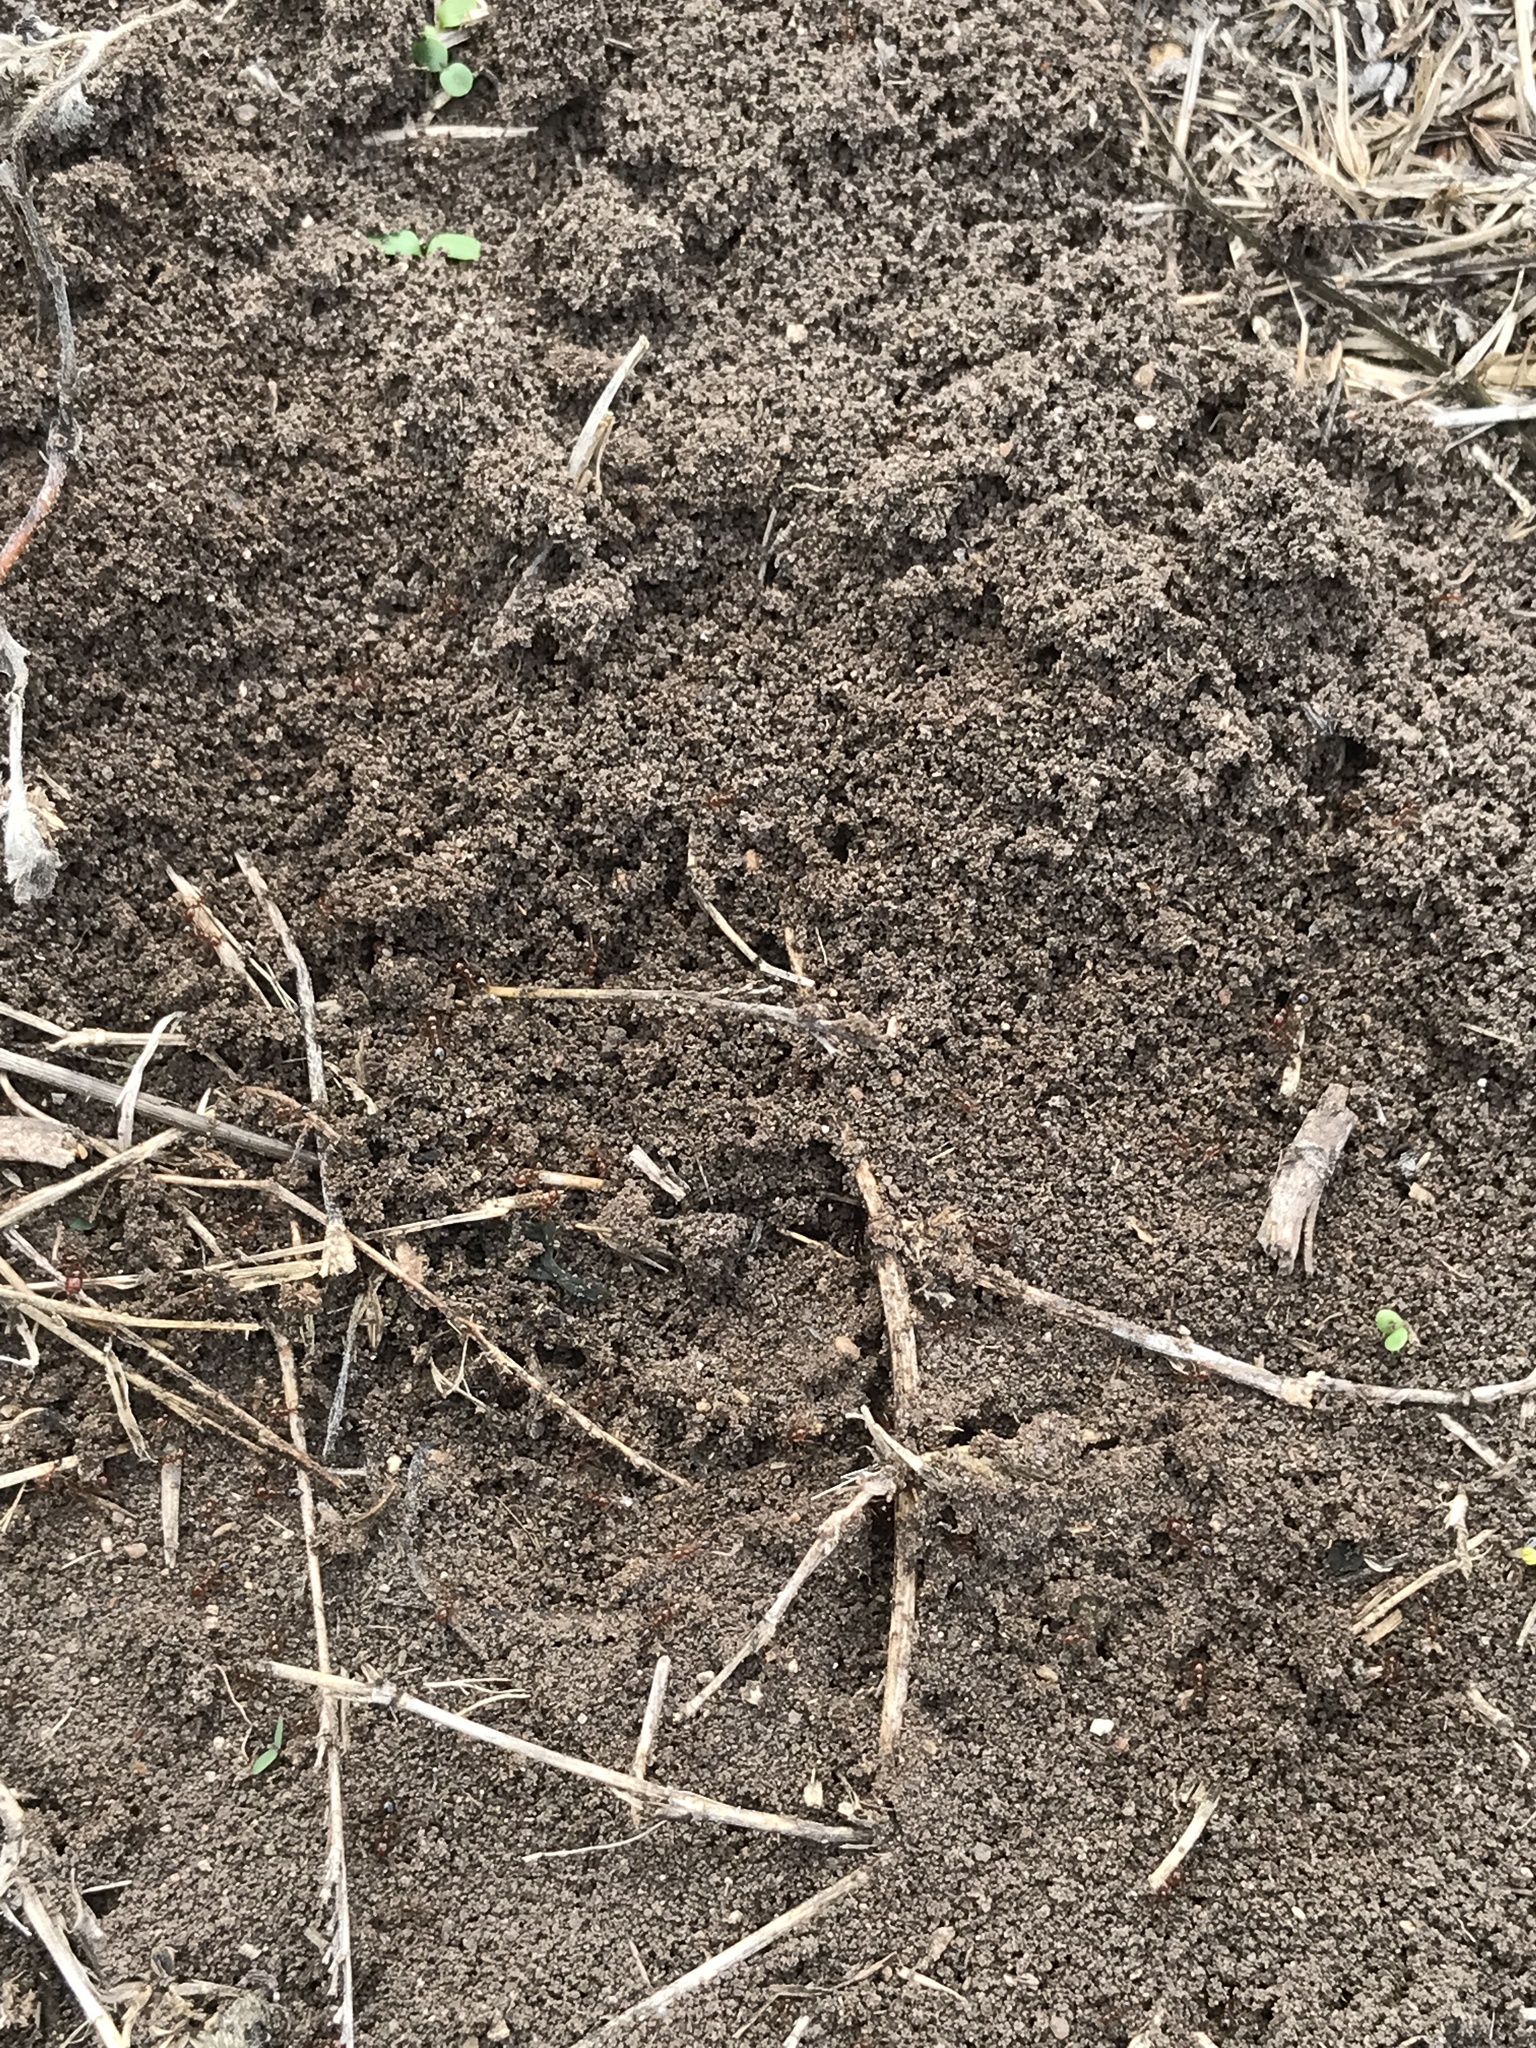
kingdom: Animalia
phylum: Arthropoda
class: Insecta
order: Hymenoptera
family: Formicidae
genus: Solenopsis
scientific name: Solenopsis invicta
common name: Red imported fire ant
